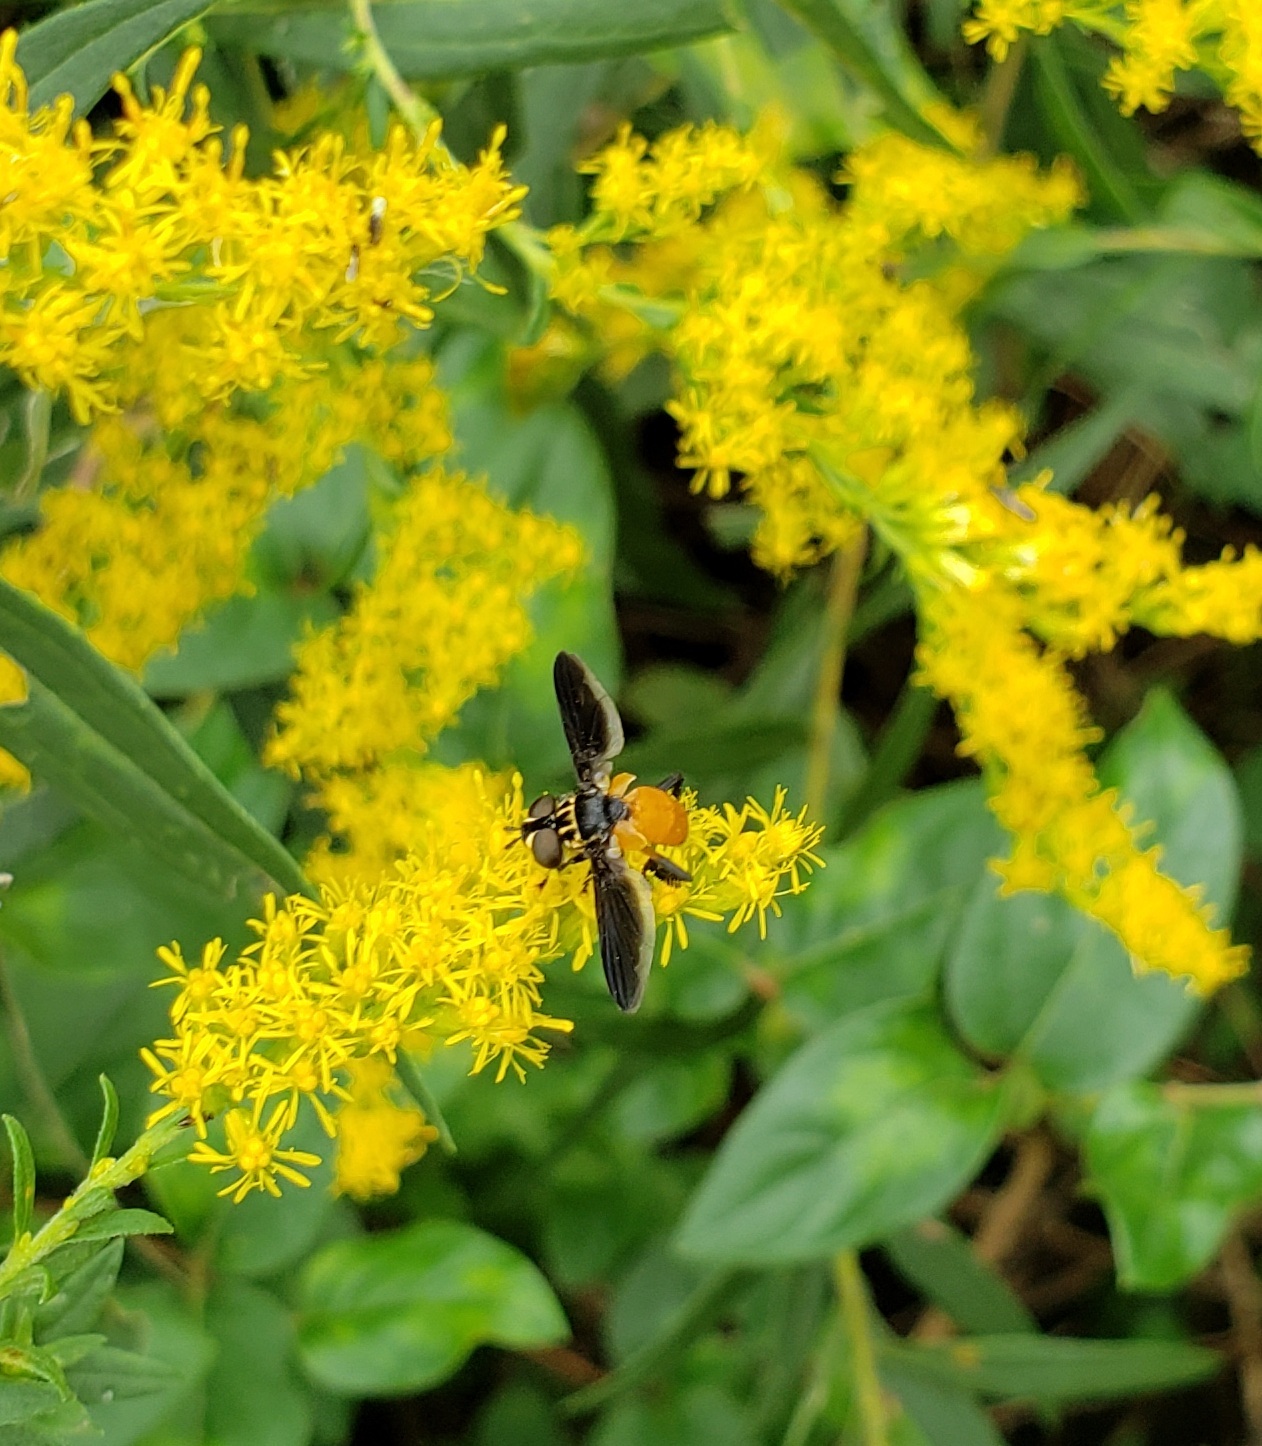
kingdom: Animalia
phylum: Arthropoda
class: Insecta
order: Diptera
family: Tachinidae
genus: Trichopoda
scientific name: Trichopoda pennipes
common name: Tachinid fly
